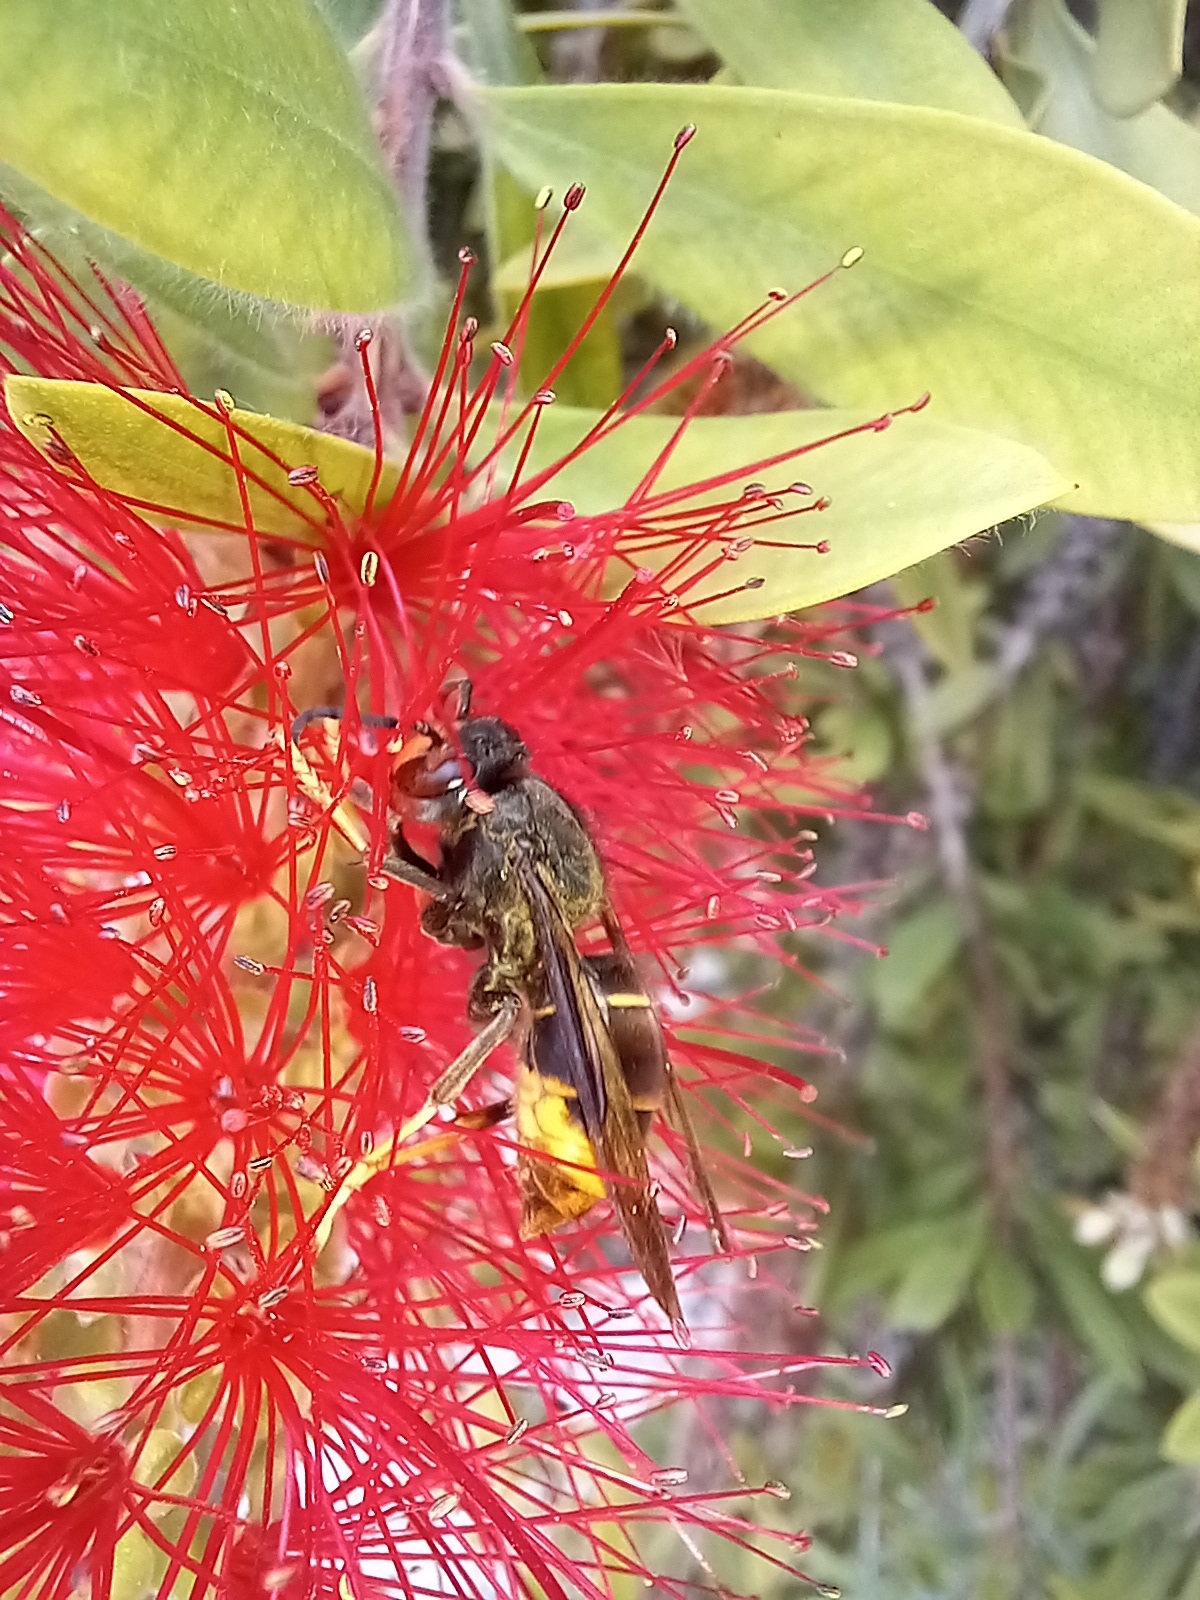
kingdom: Animalia
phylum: Arthropoda
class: Insecta
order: Hymenoptera
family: Vespidae
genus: Vespa
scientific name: Vespa velutina
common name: Asian hornet
